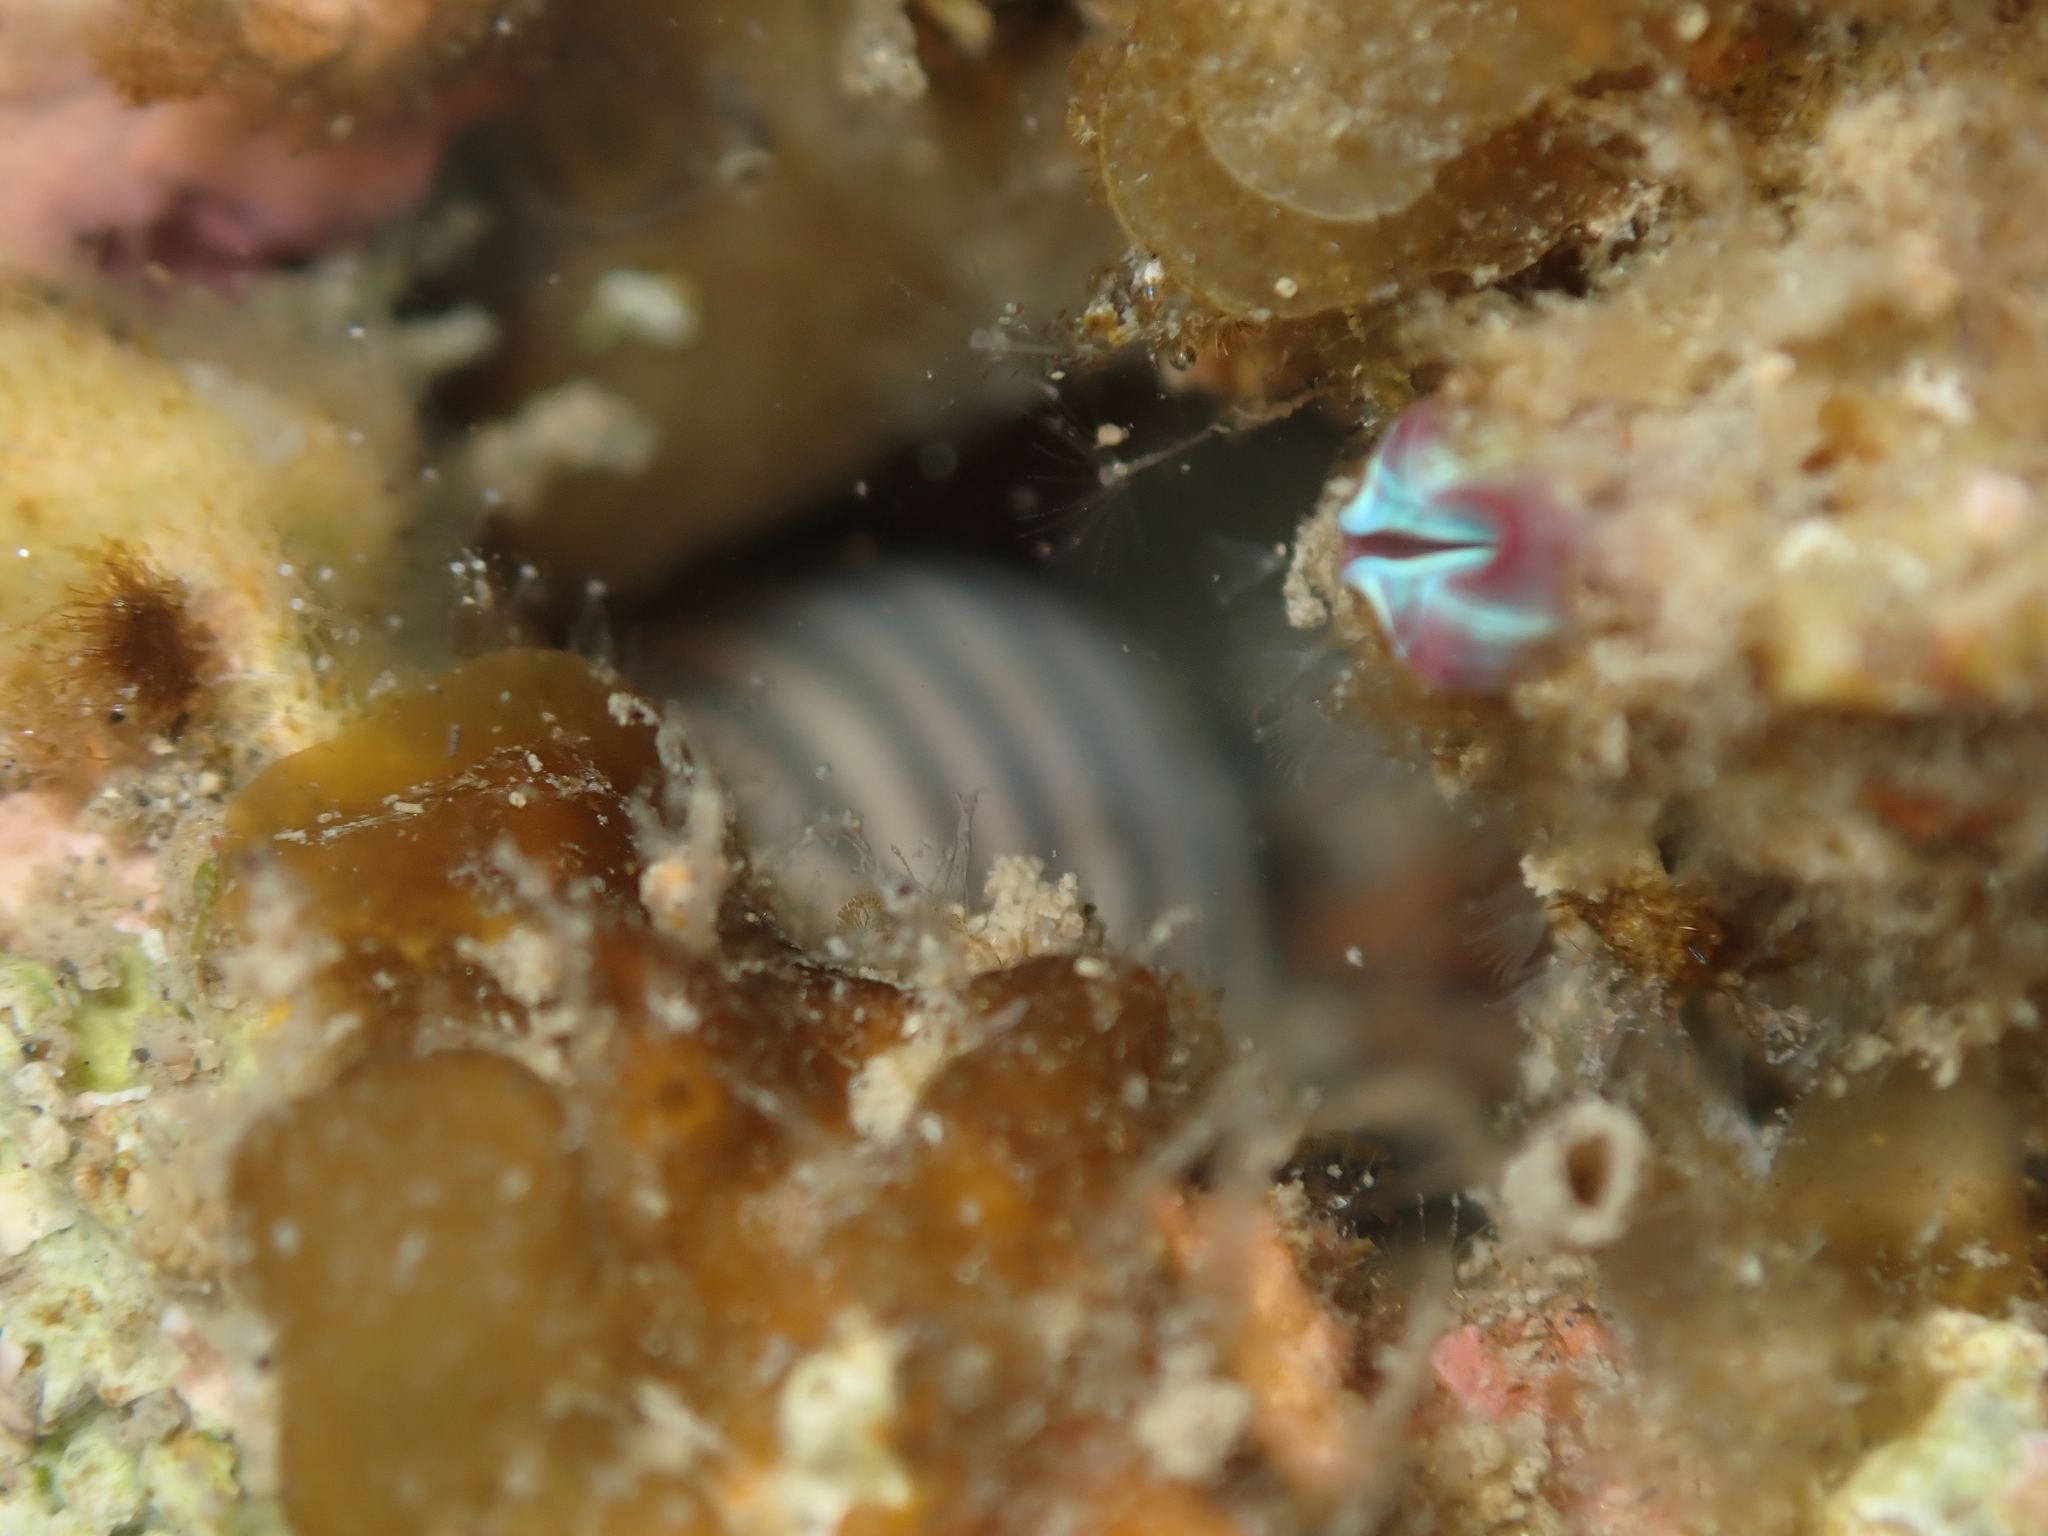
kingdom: Animalia
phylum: Mollusca
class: Gastropoda
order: Neogastropoda
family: Tudiclidae
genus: Buccinulum
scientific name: Buccinulum linea
